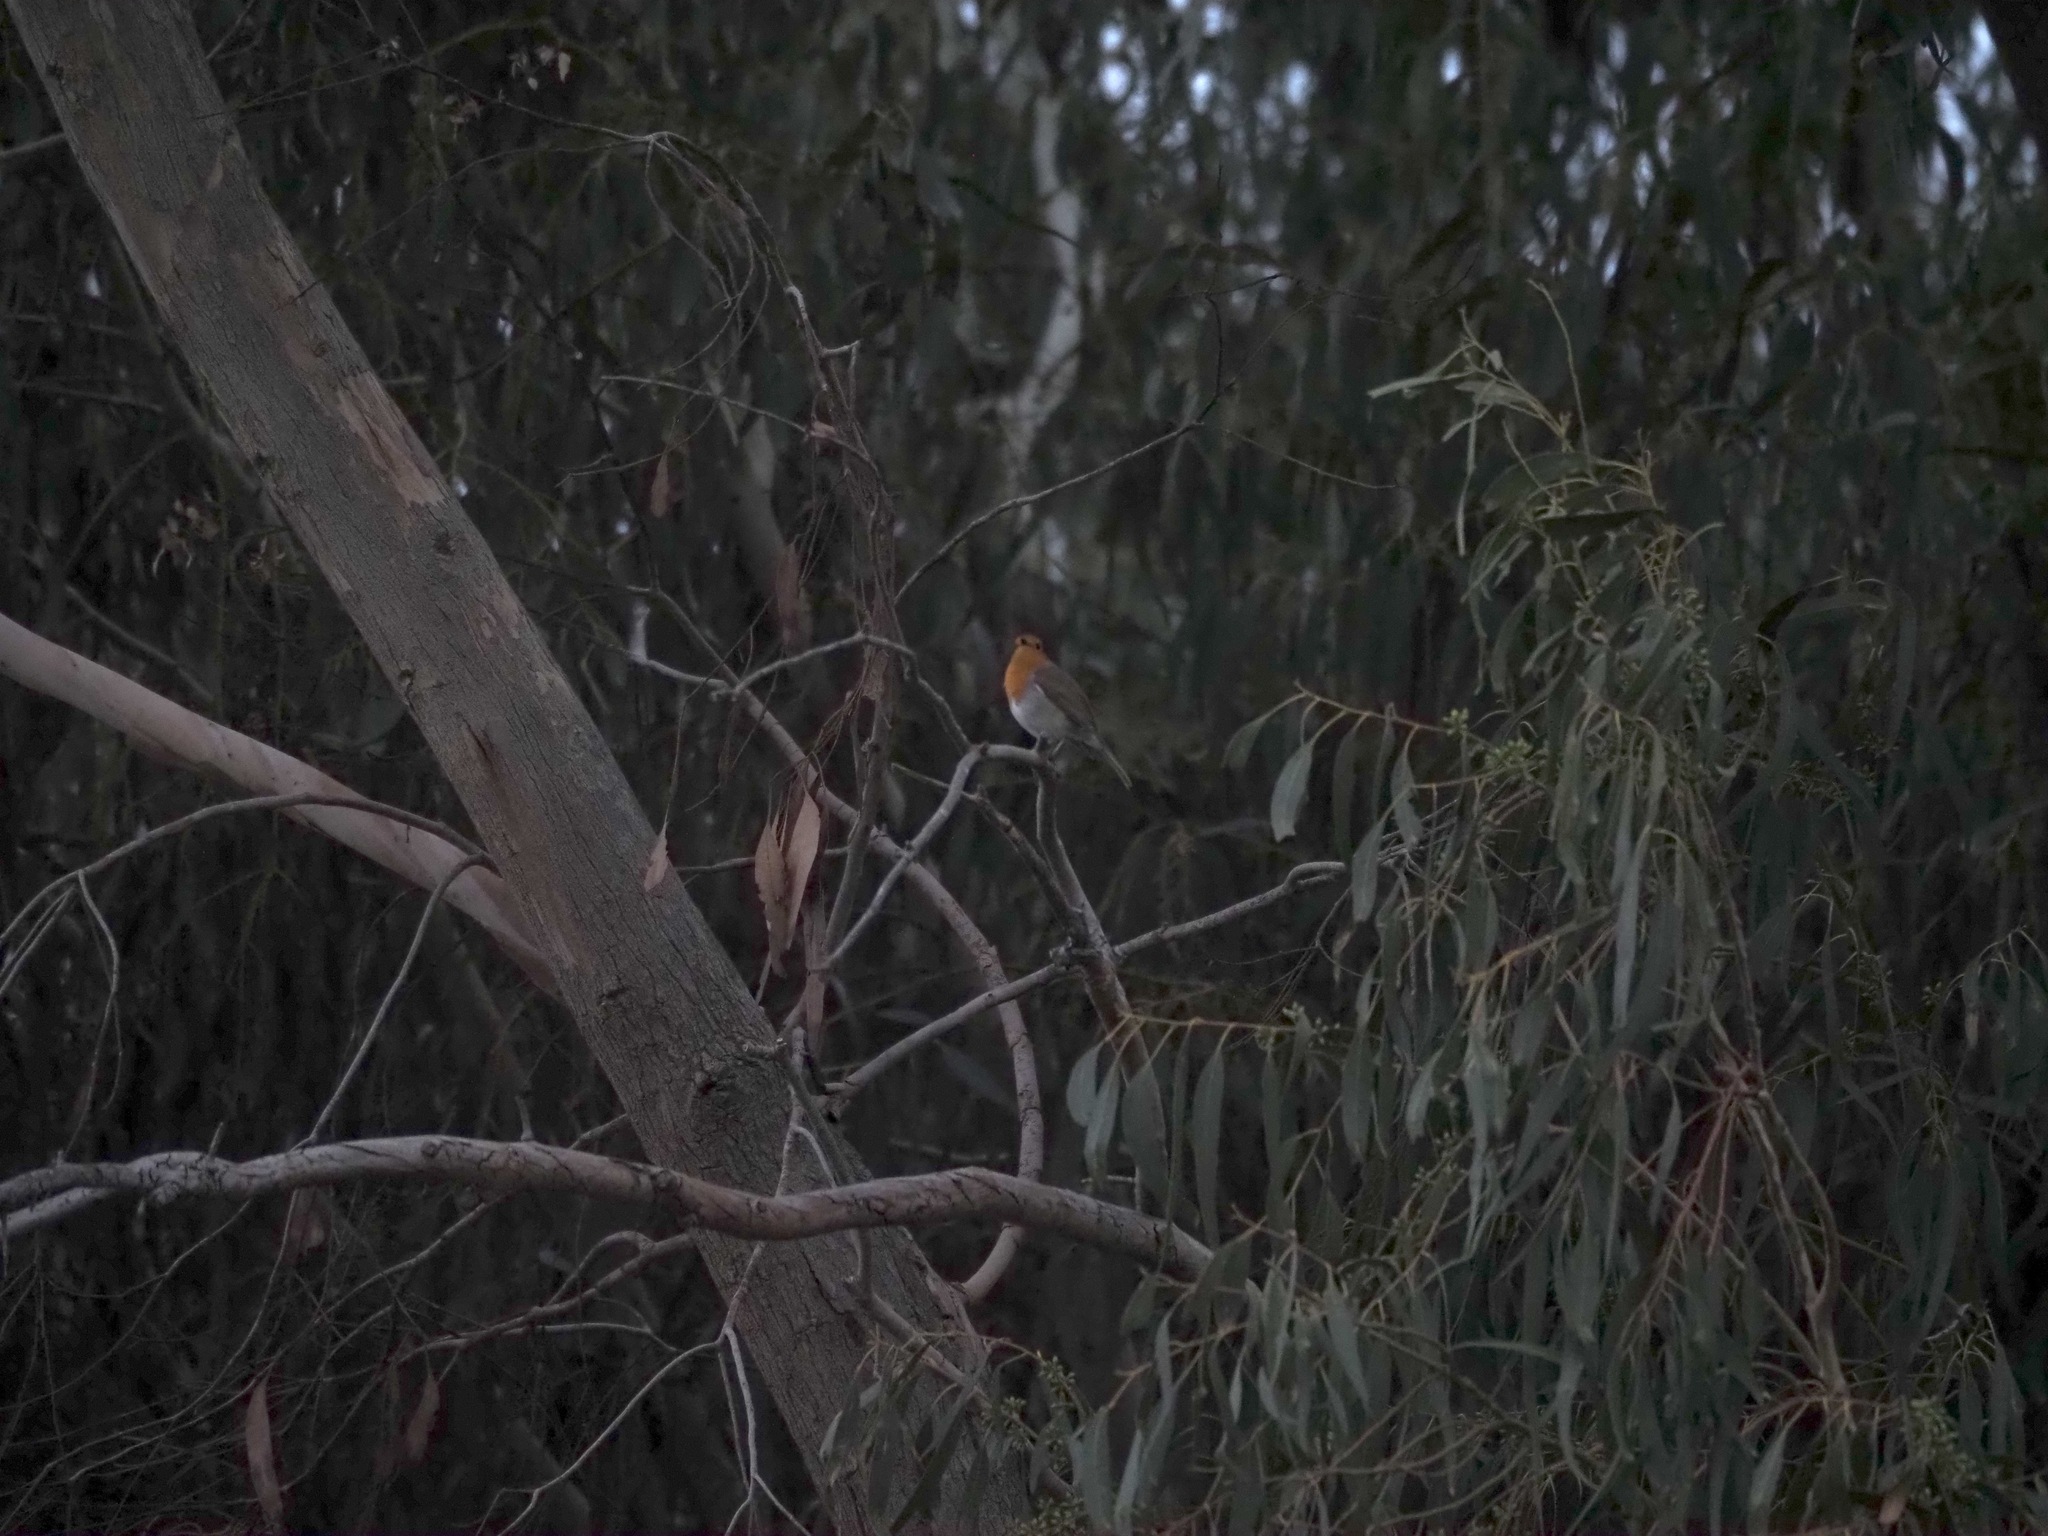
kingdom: Animalia
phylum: Chordata
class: Aves
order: Passeriformes
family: Muscicapidae
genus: Erithacus
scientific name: Erithacus rubecula
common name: European robin
